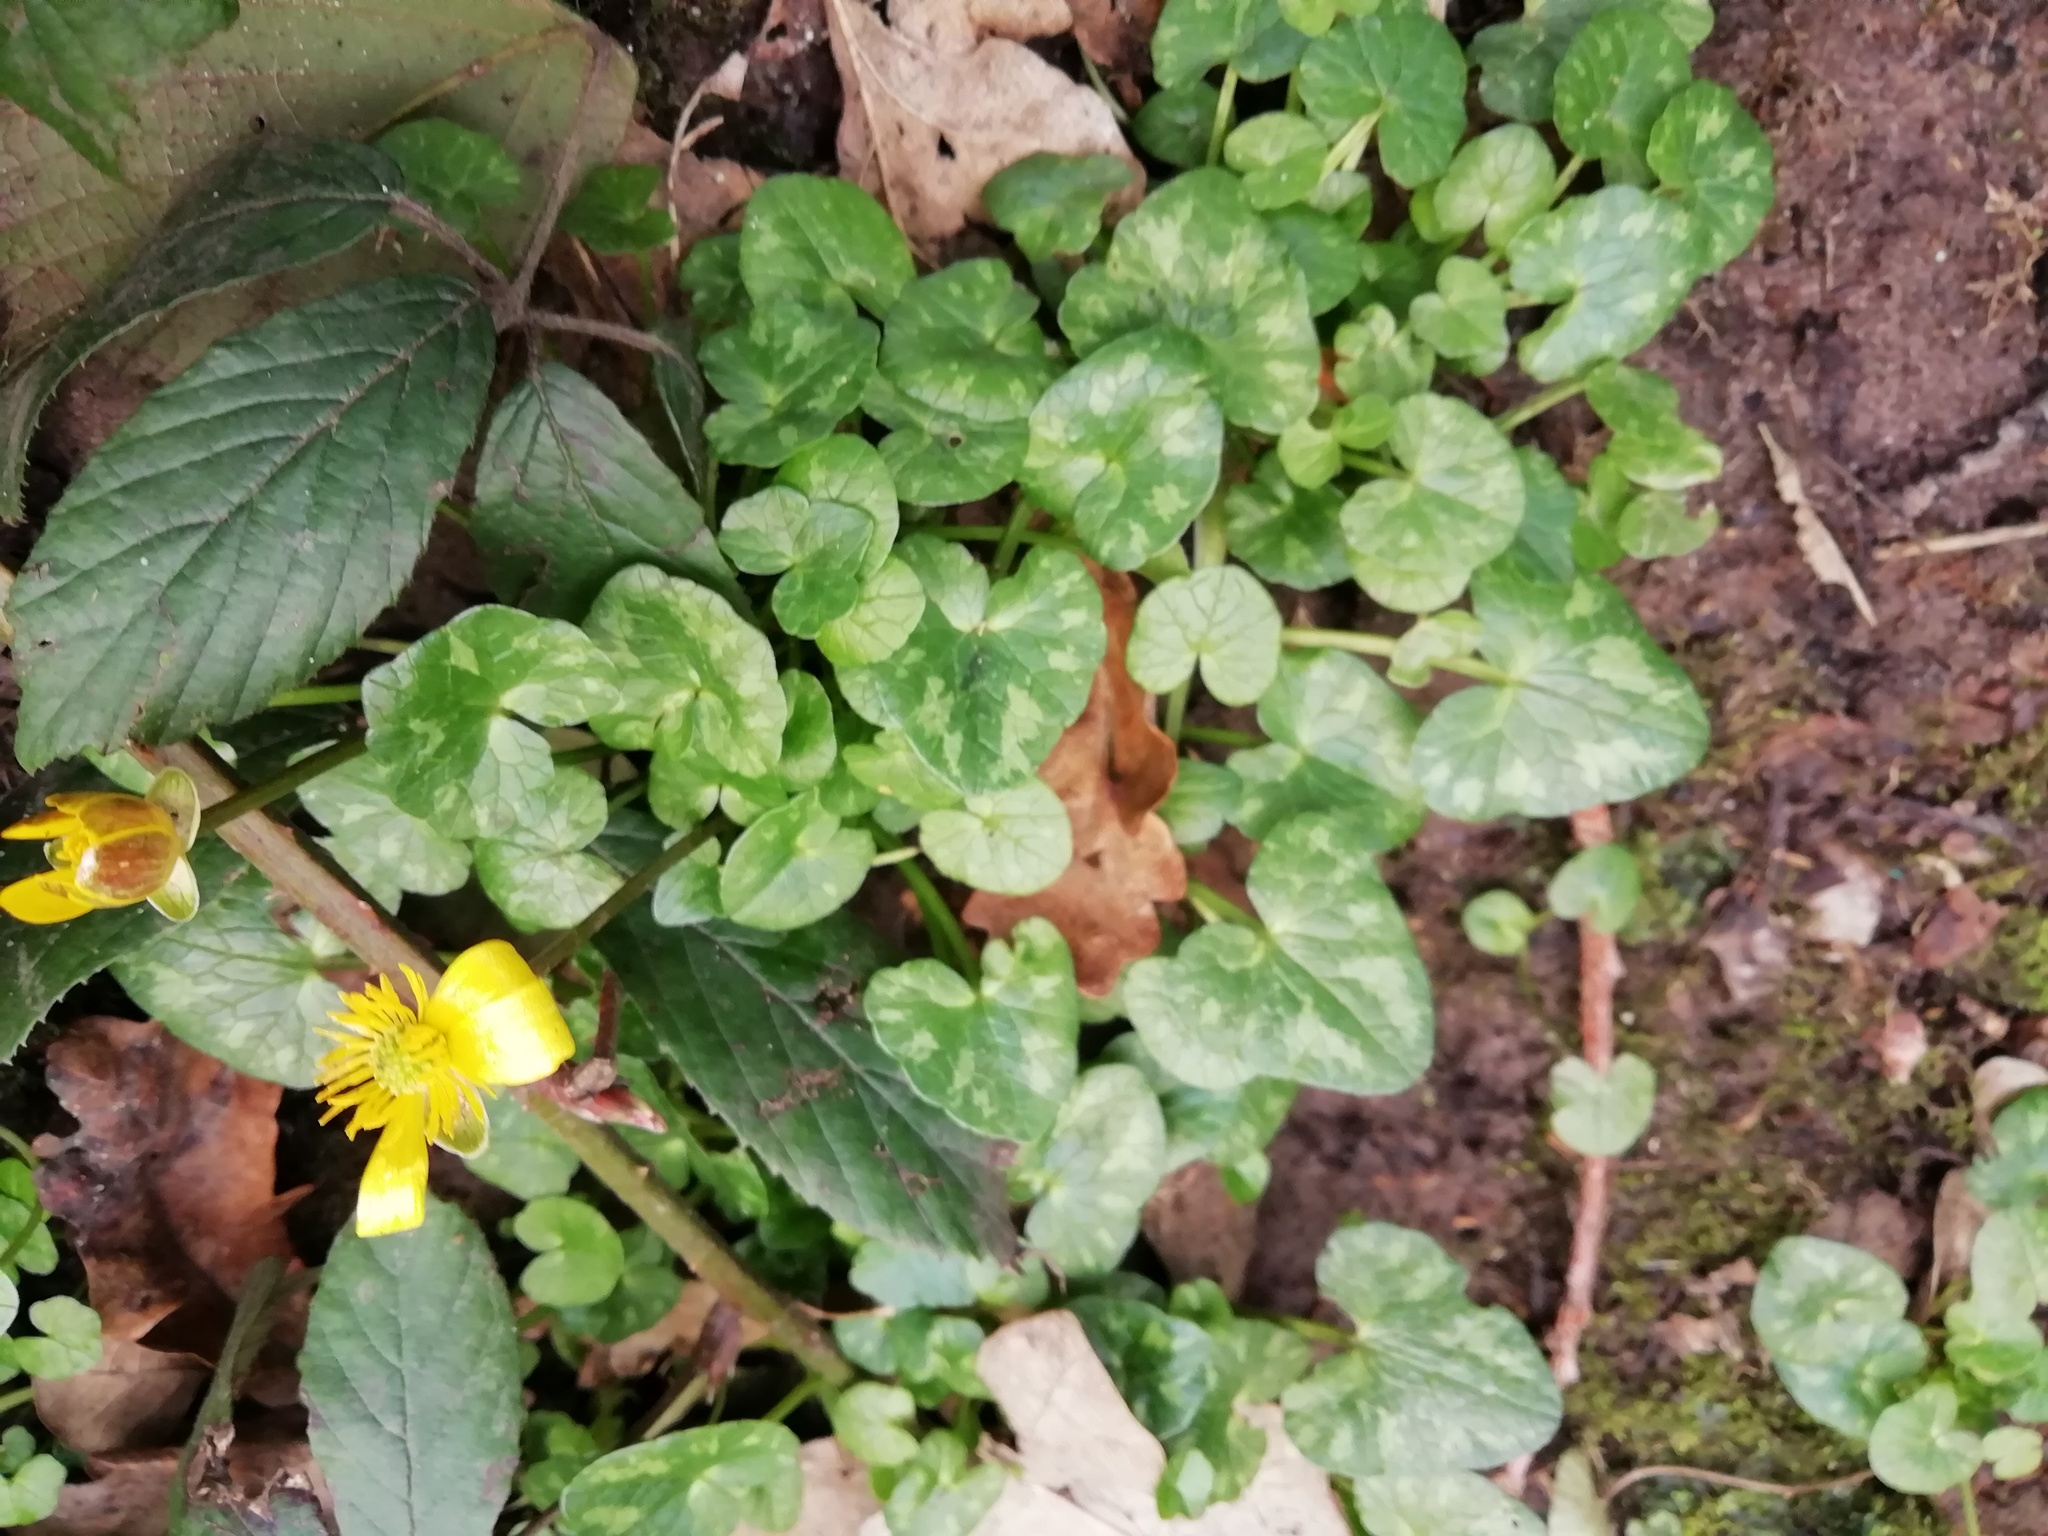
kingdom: Plantae
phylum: Tracheophyta
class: Magnoliopsida
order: Ranunculales
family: Ranunculaceae
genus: Ficaria
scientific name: Ficaria verna
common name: Lesser celandine
